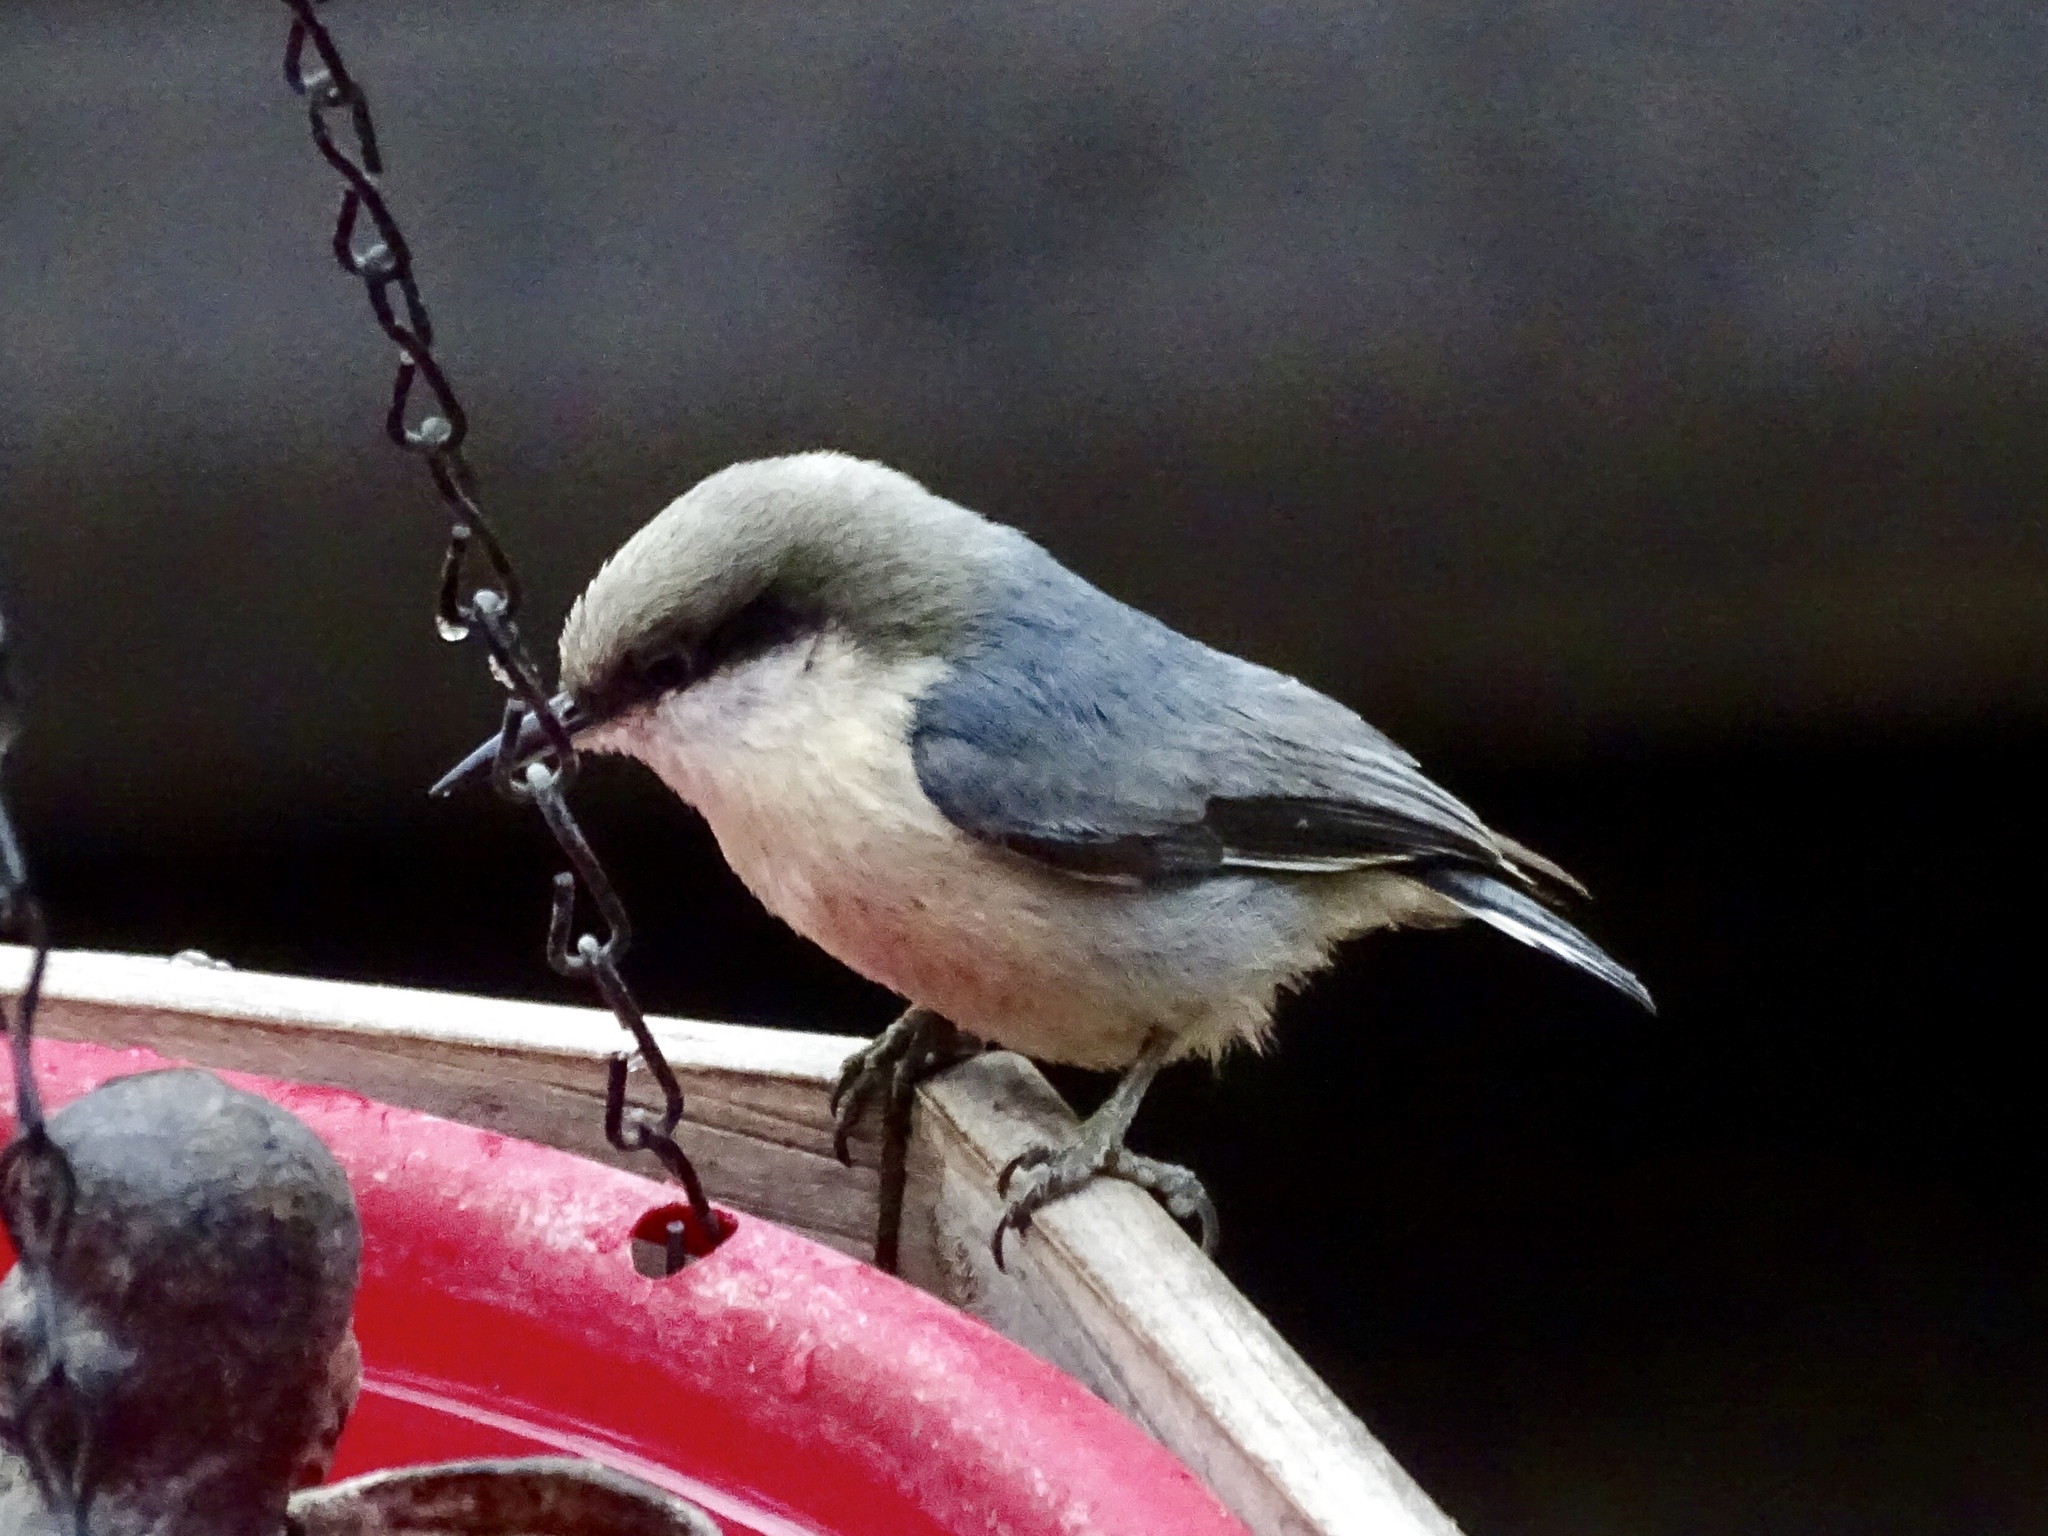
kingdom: Animalia
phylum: Chordata
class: Aves
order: Passeriformes
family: Sittidae
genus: Sitta
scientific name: Sitta pygmaea
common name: Pygmy nuthatch
